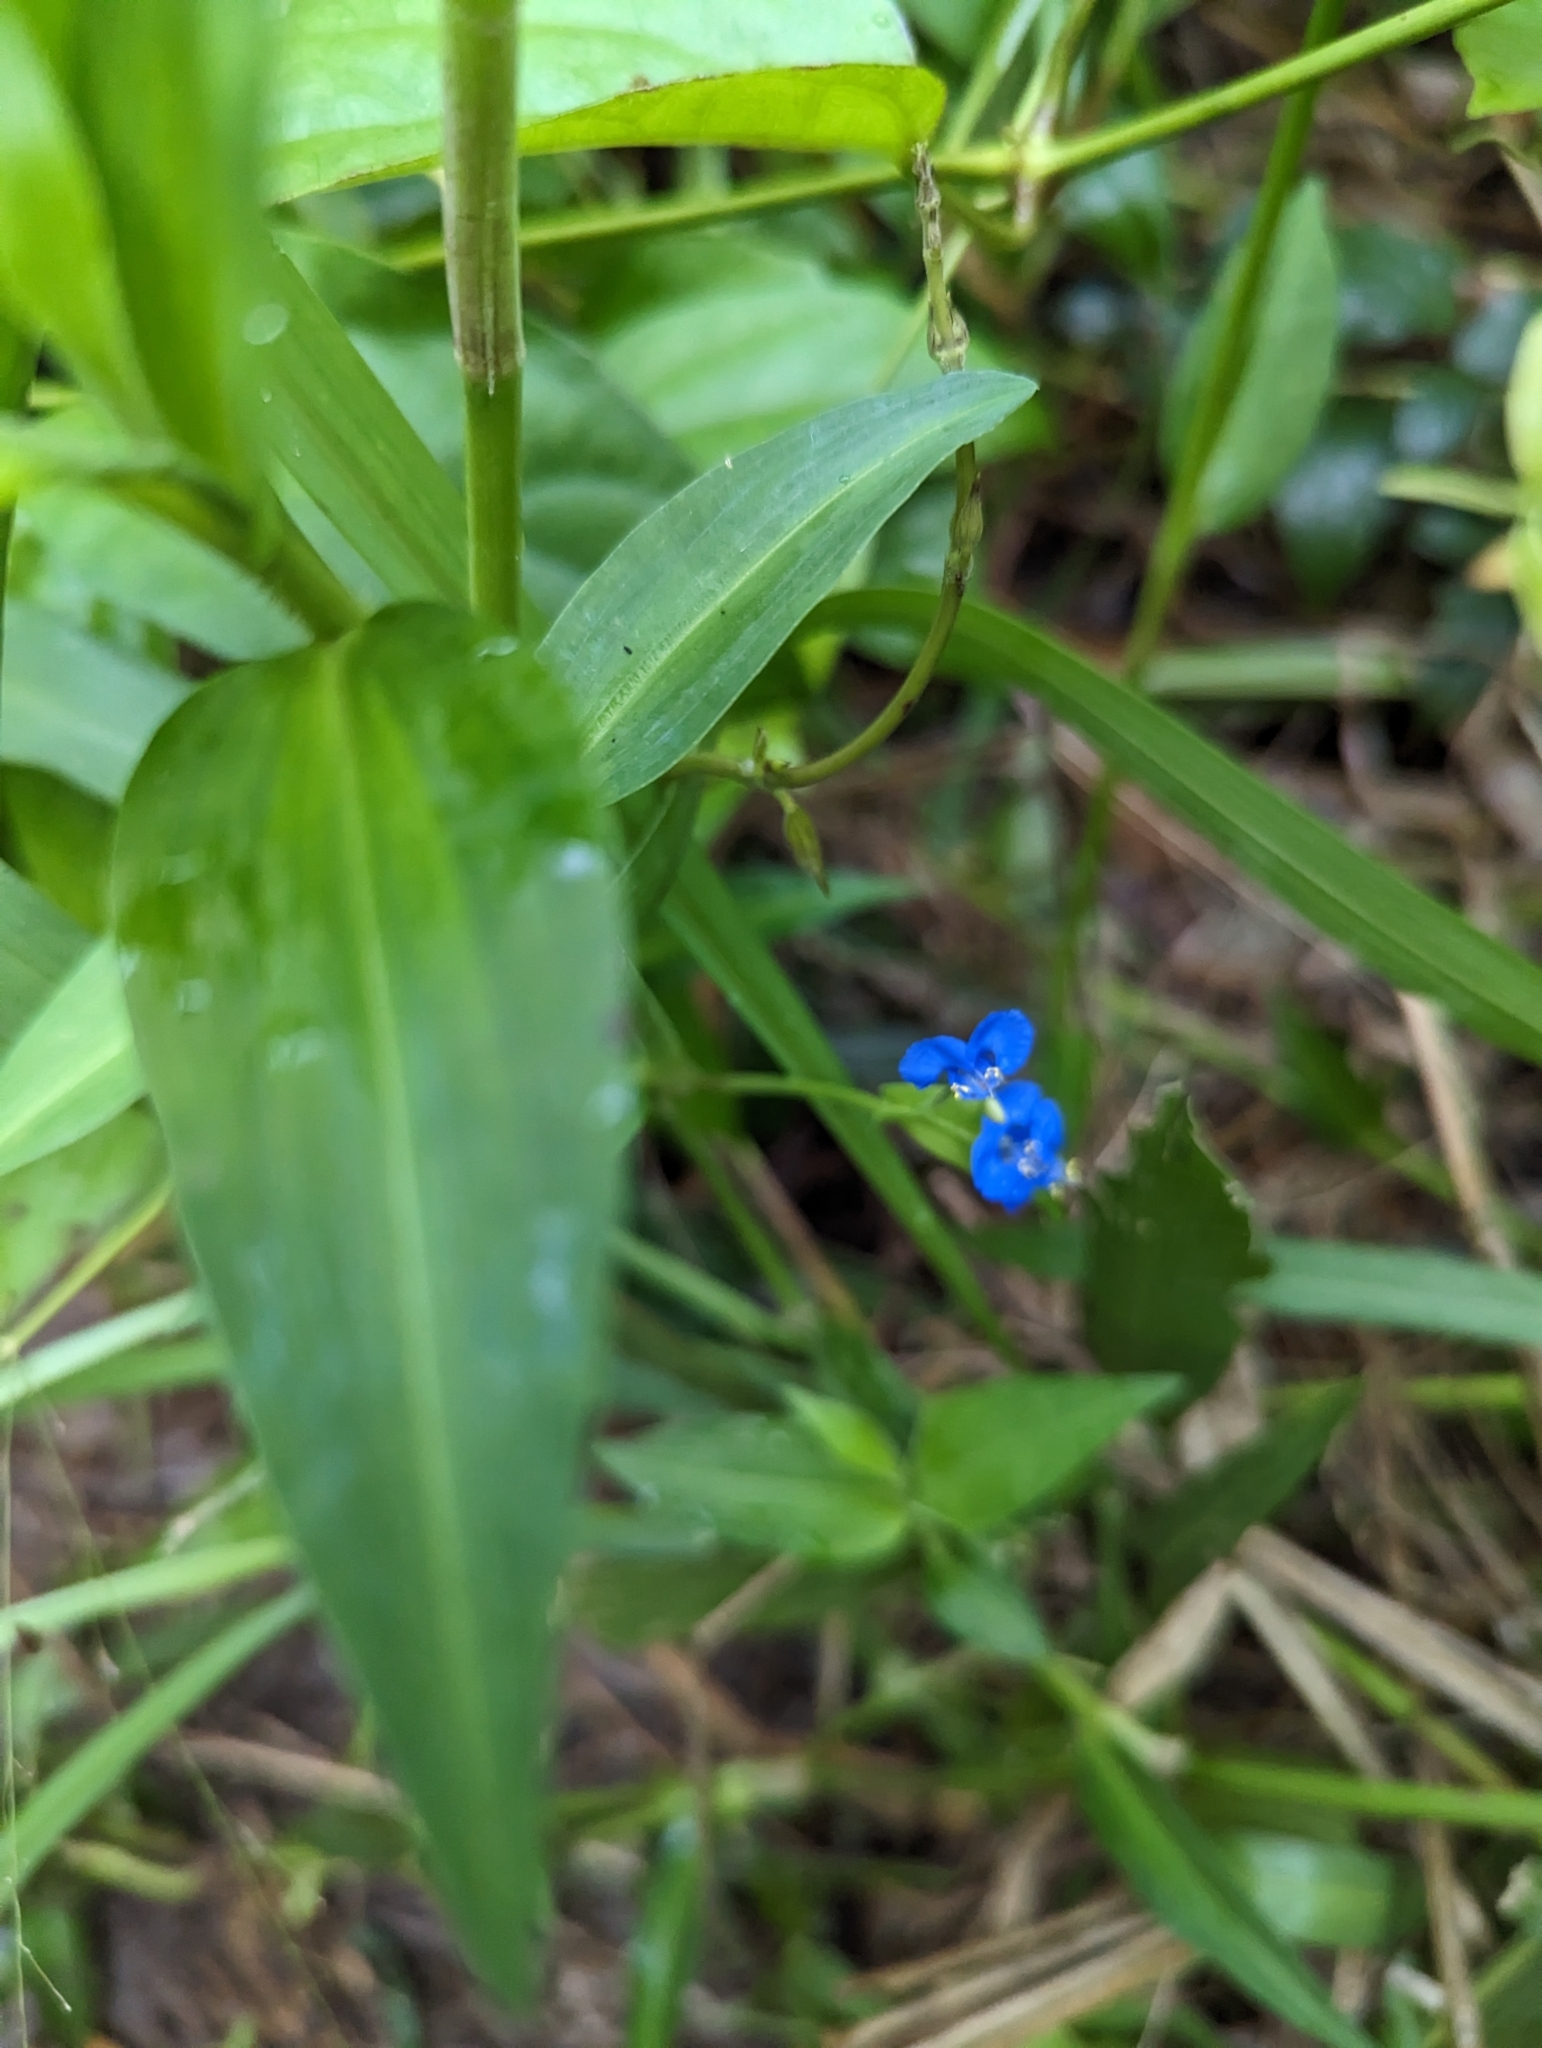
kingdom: Plantae
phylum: Tracheophyta
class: Liliopsida
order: Commelinales
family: Commelinaceae
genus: Commelina
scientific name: Commelina diffusa
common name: Climbing dayflower
